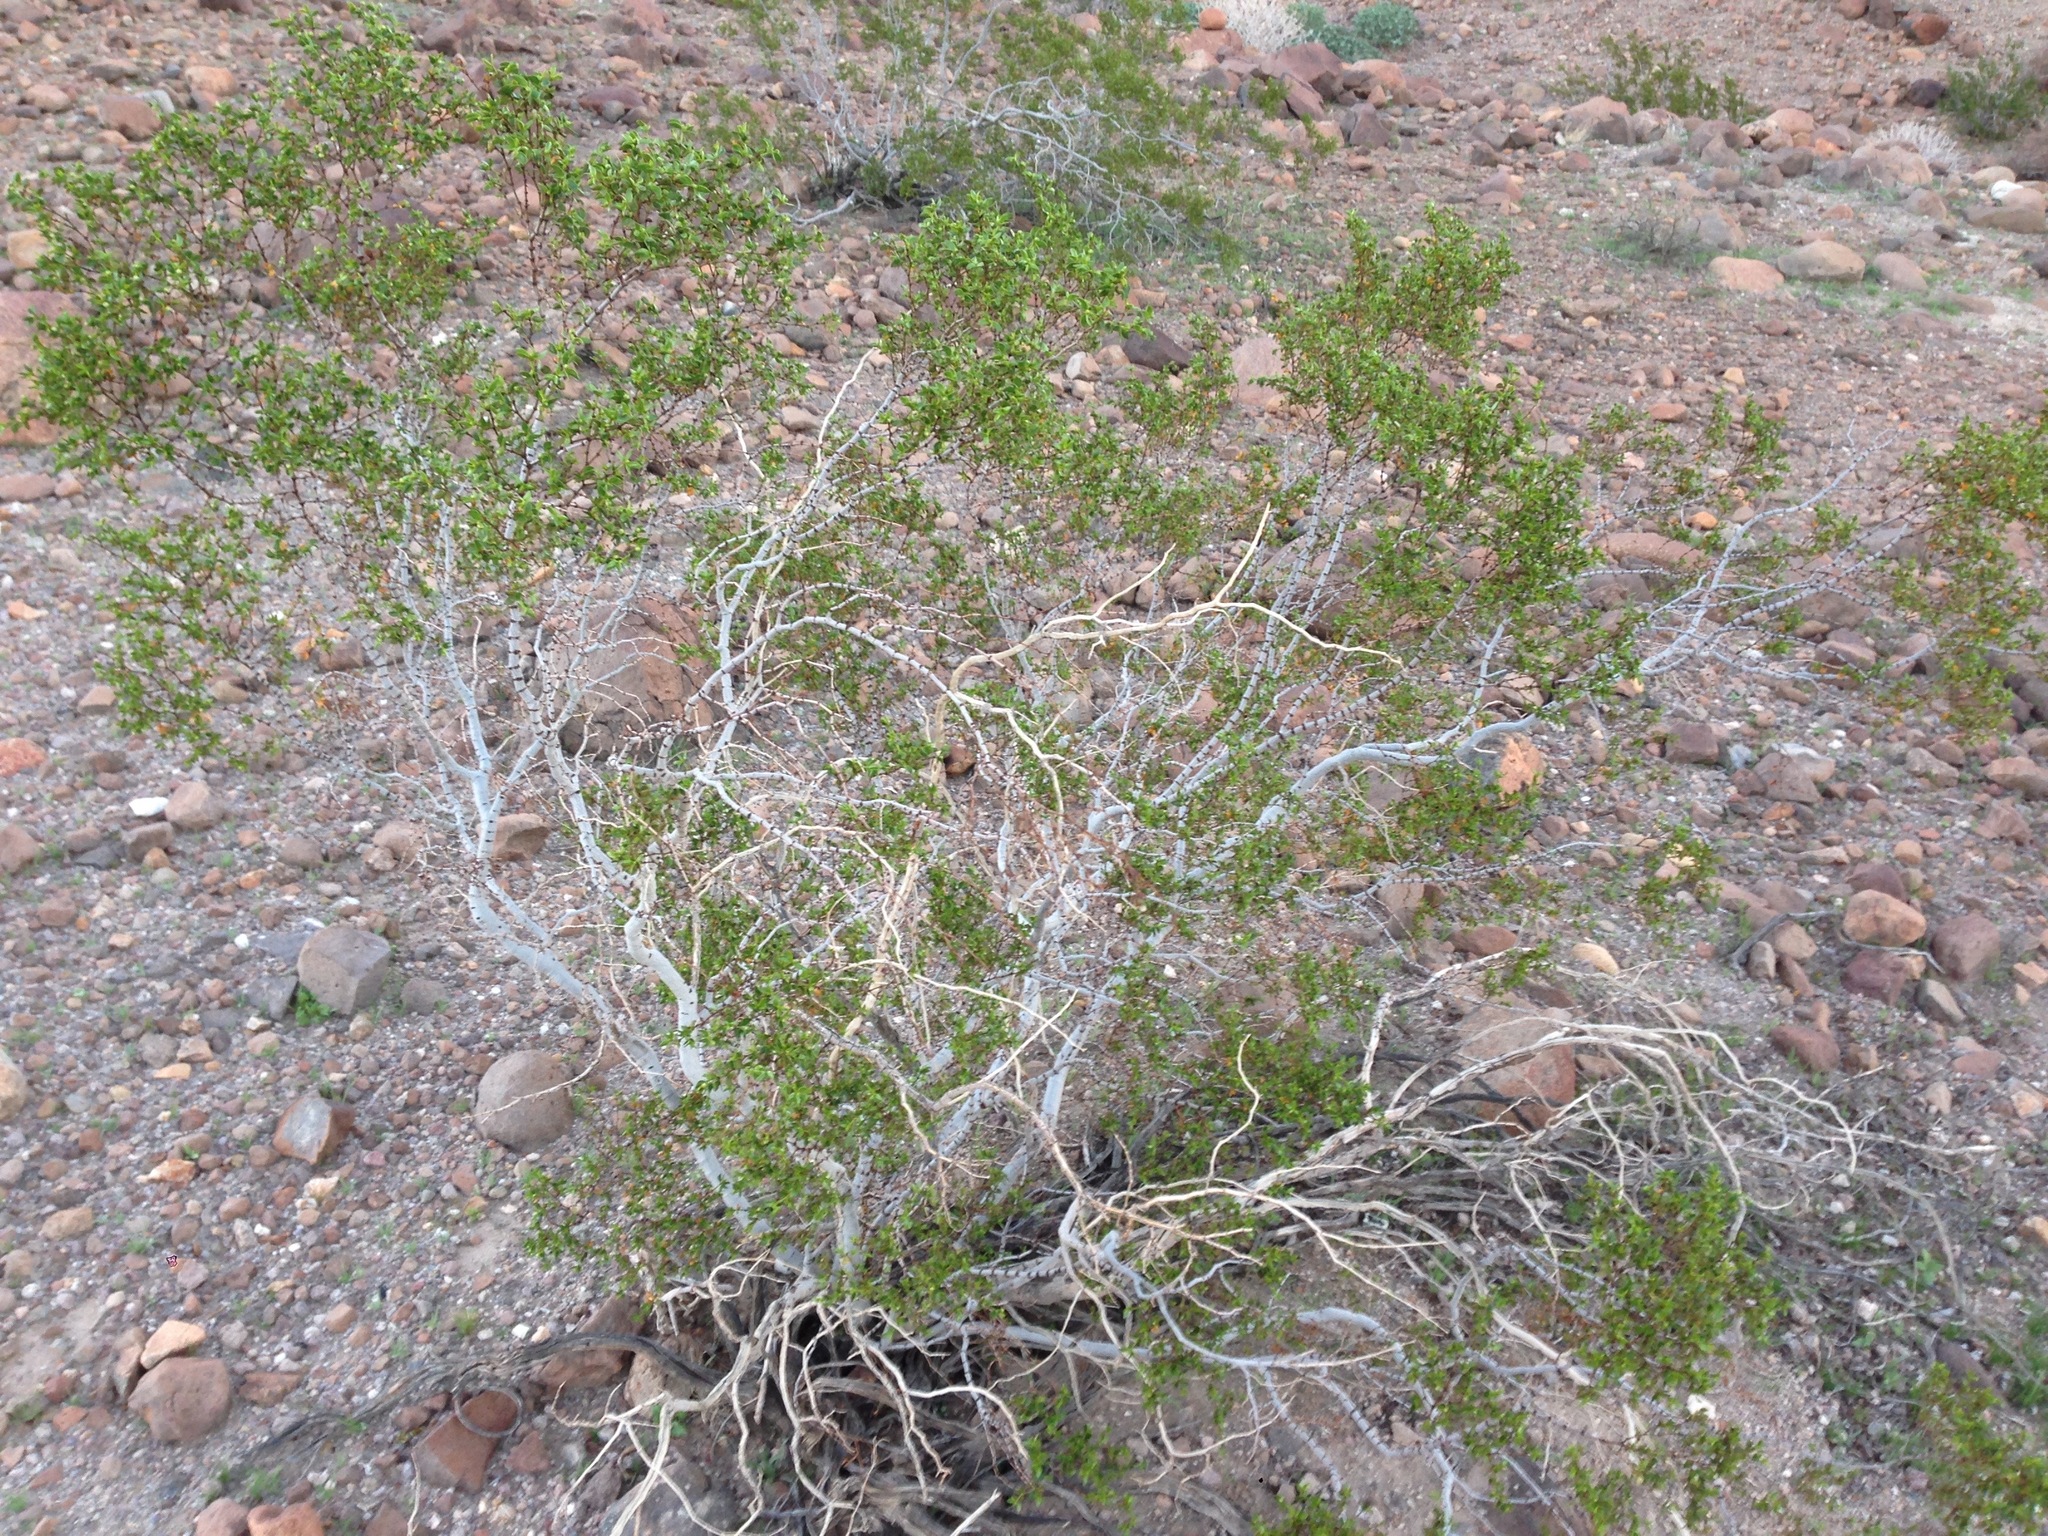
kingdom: Plantae
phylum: Tracheophyta
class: Magnoliopsida
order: Zygophyllales
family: Zygophyllaceae
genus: Larrea
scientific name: Larrea tridentata
